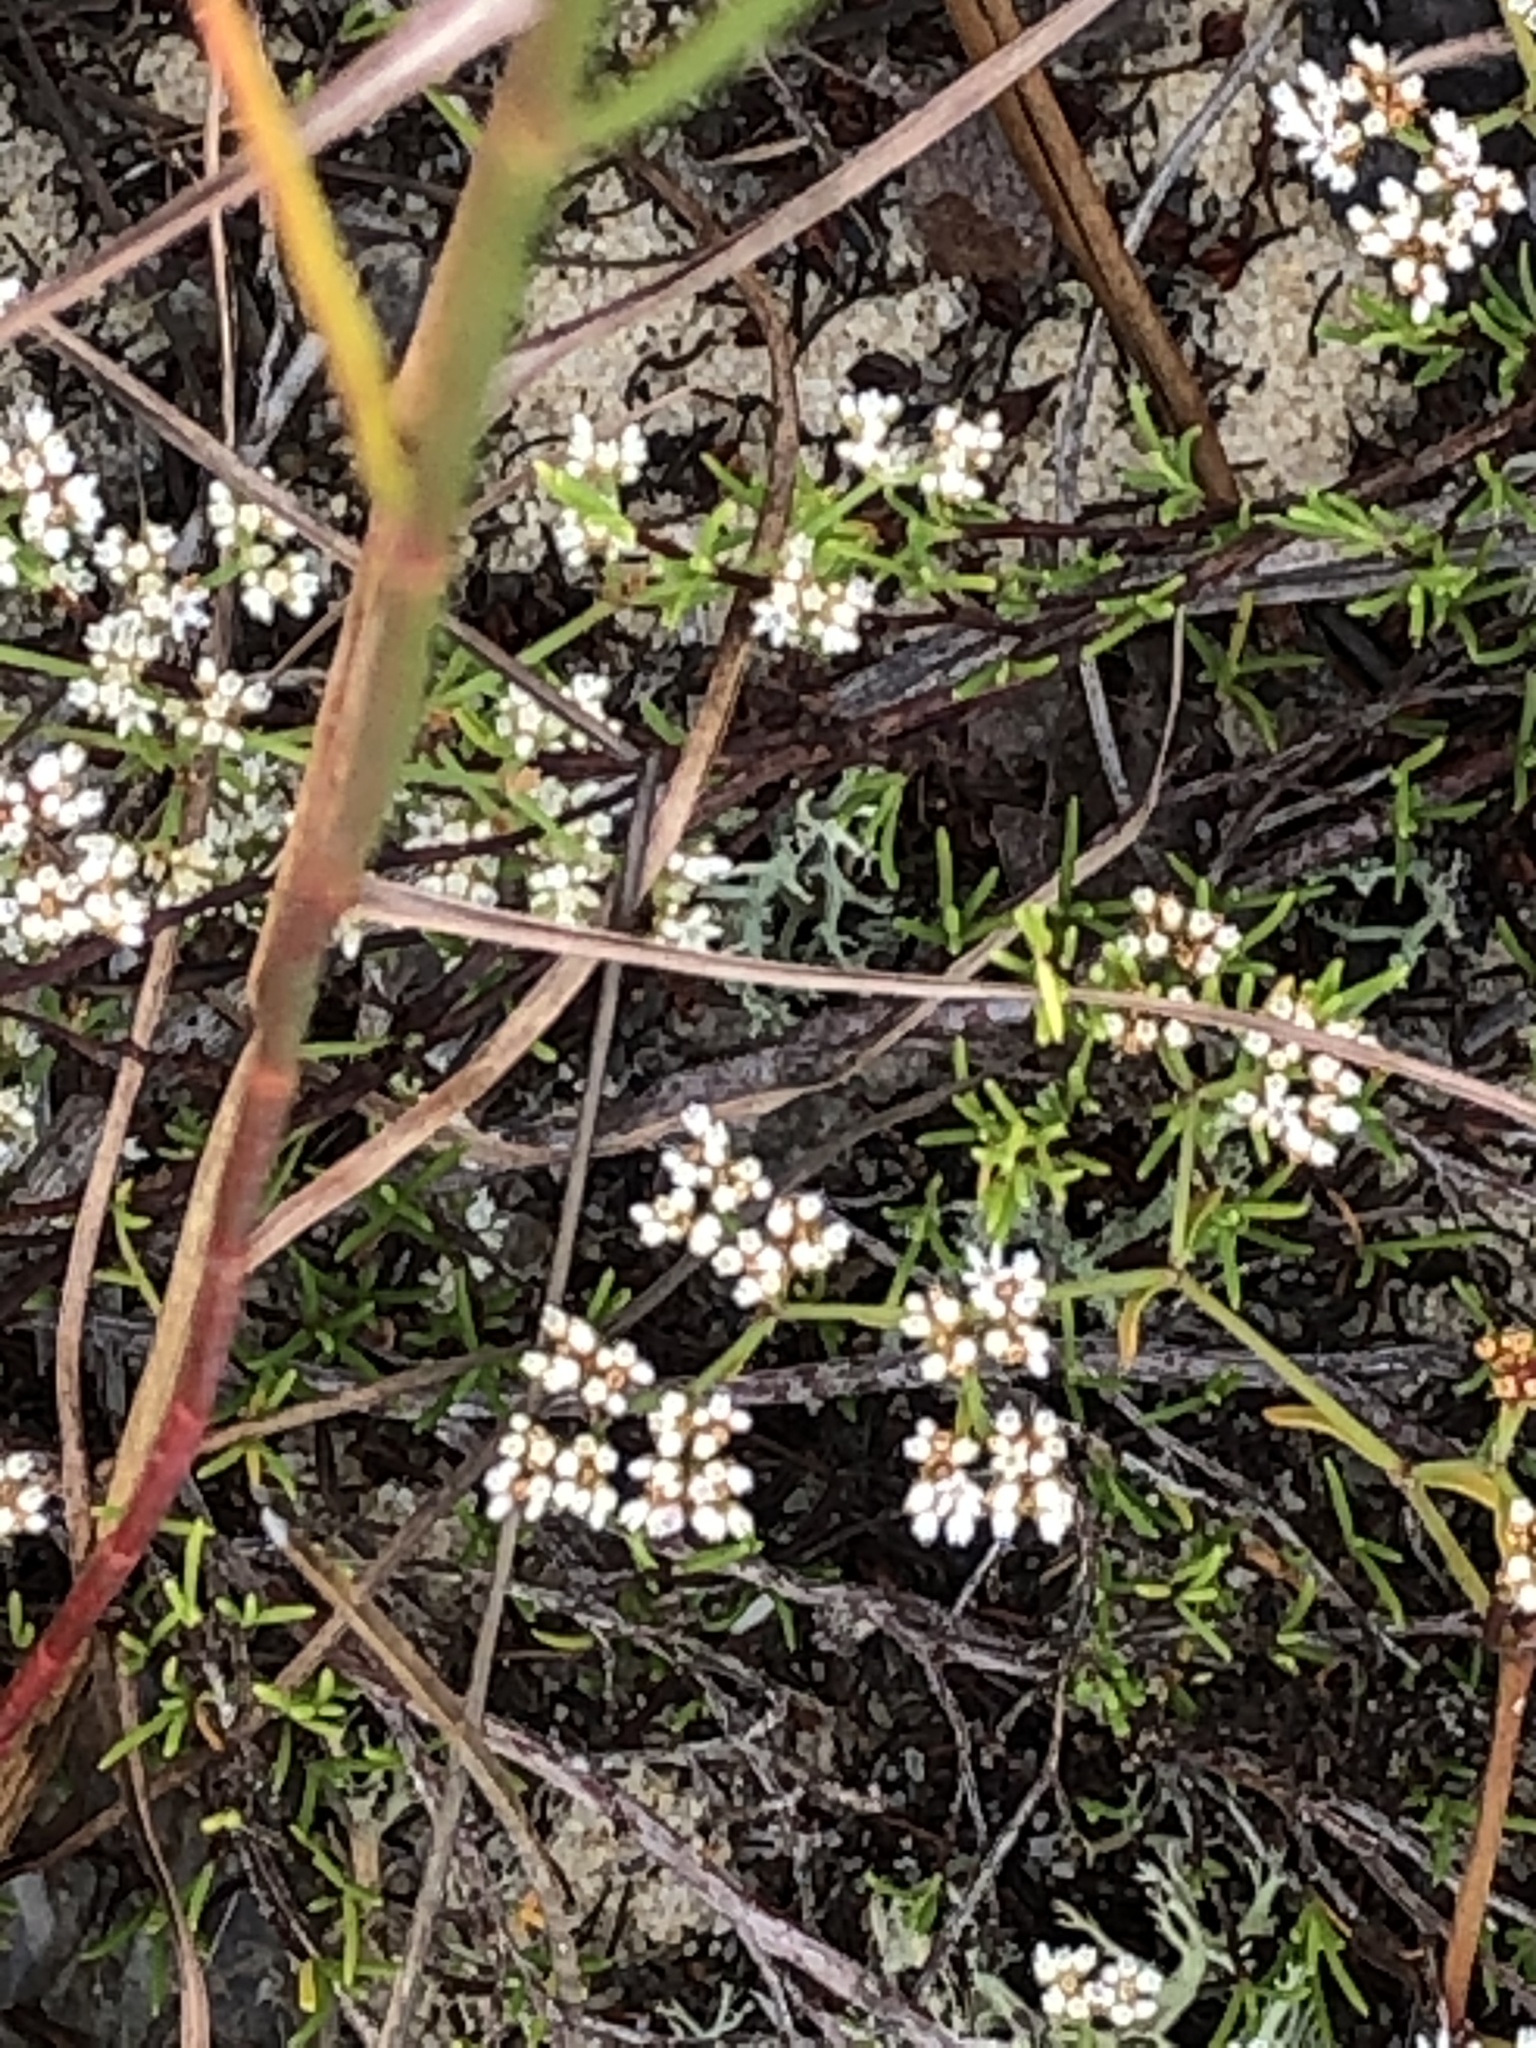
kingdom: Plantae
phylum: Tracheophyta
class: Magnoliopsida
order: Caryophyllales
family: Caryophyllaceae
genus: Paronychia
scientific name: Paronychia americana
